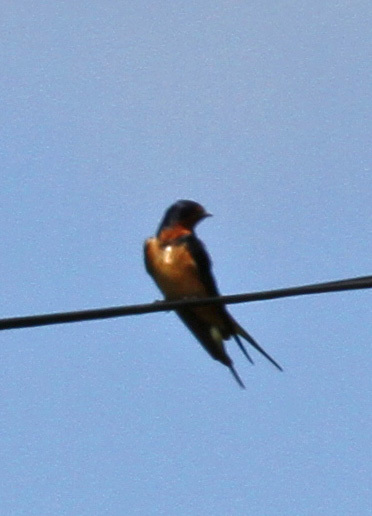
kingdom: Animalia
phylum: Chordata
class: Aves
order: Passeriformes
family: Hirundinidae
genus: Hirundo
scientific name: Hirundo rustica
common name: Barn swallow
